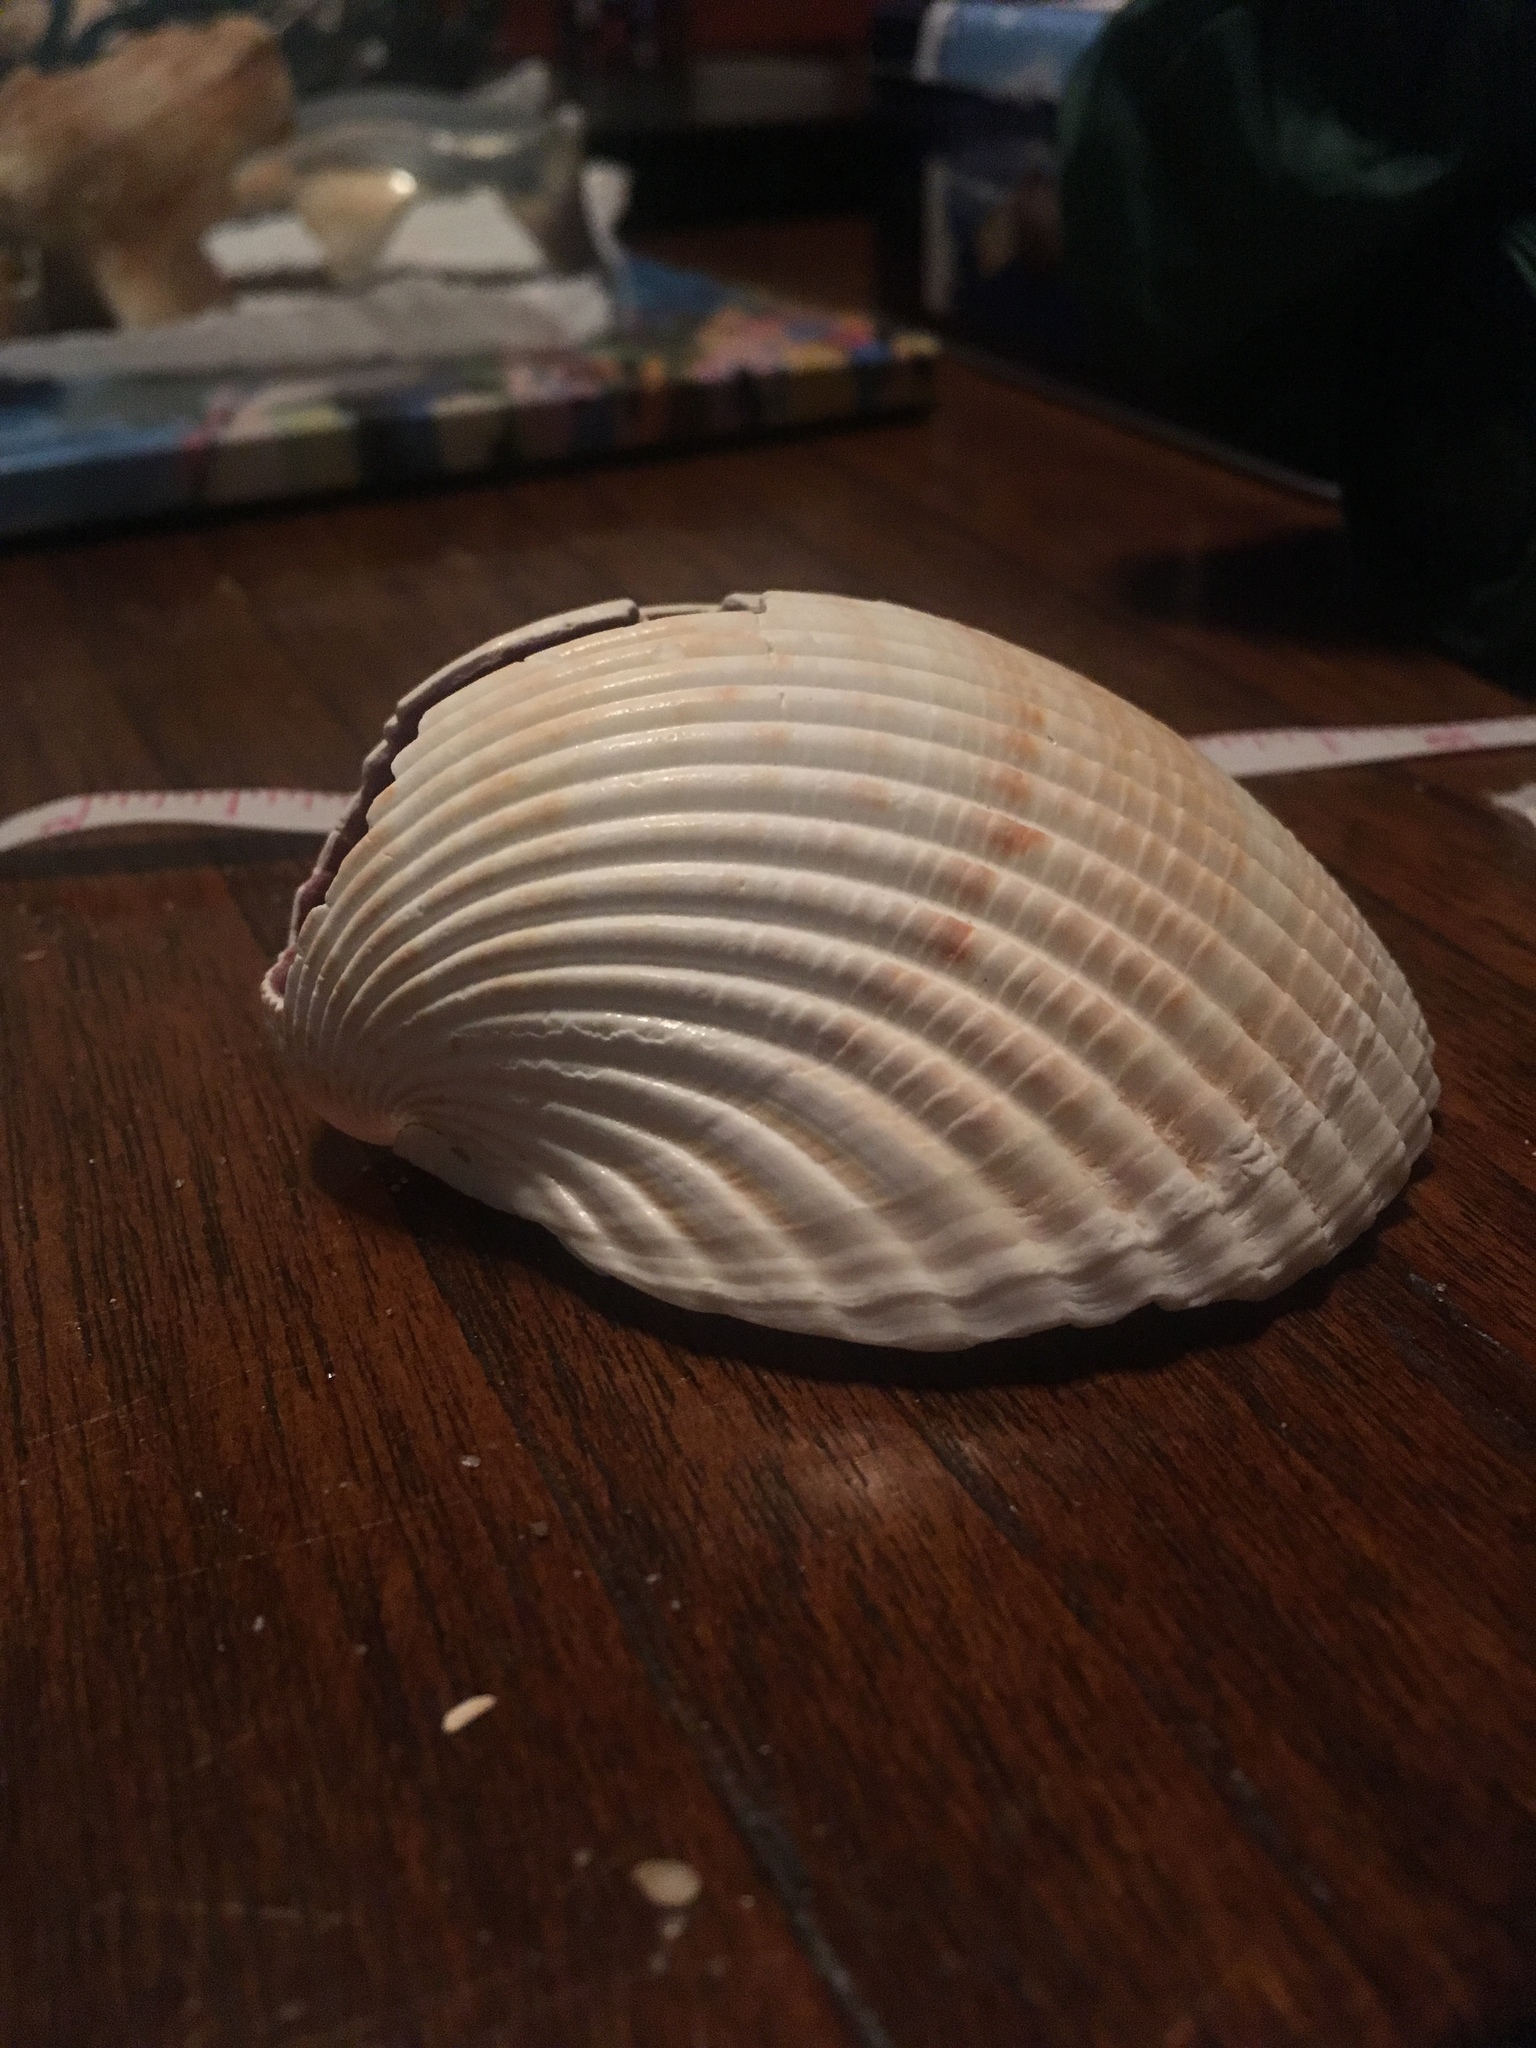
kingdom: Animalia
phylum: Mollusca
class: Bivalvia
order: Cardiida
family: Cardiidae
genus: Dinocardium
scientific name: Dinocardium robustum
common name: Atlantic giant cockle
